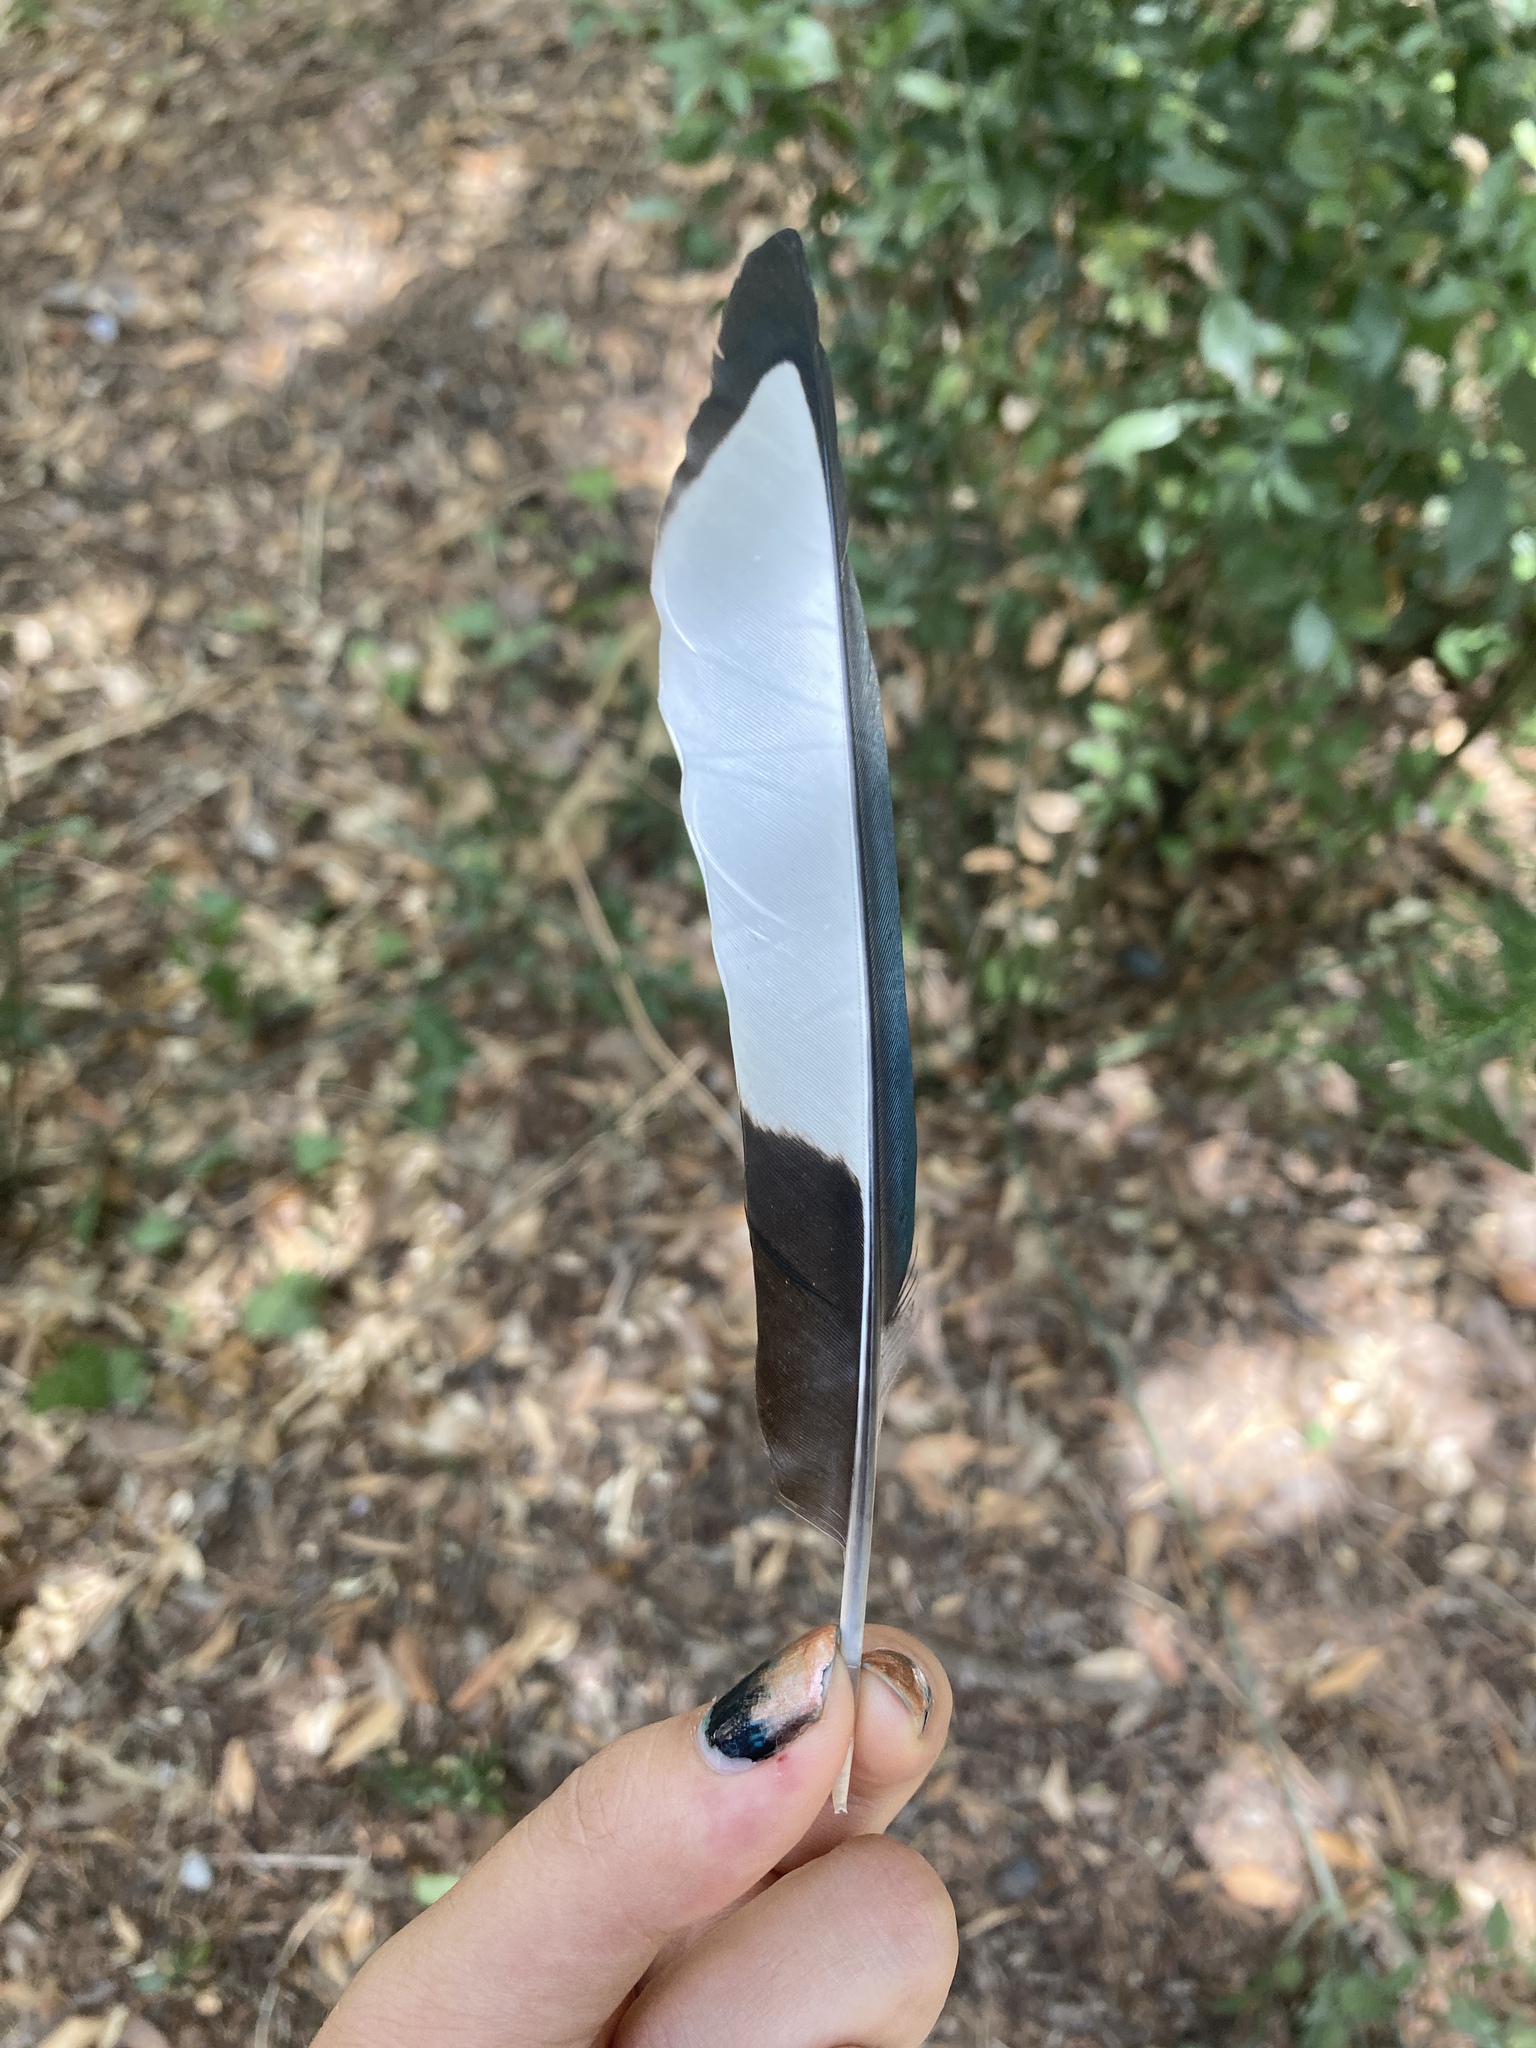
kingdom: Animalia
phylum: Chordata
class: Aves
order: Passeriformes
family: Corvidae
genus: Pica
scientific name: Pica pica
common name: Eurasian magpie
